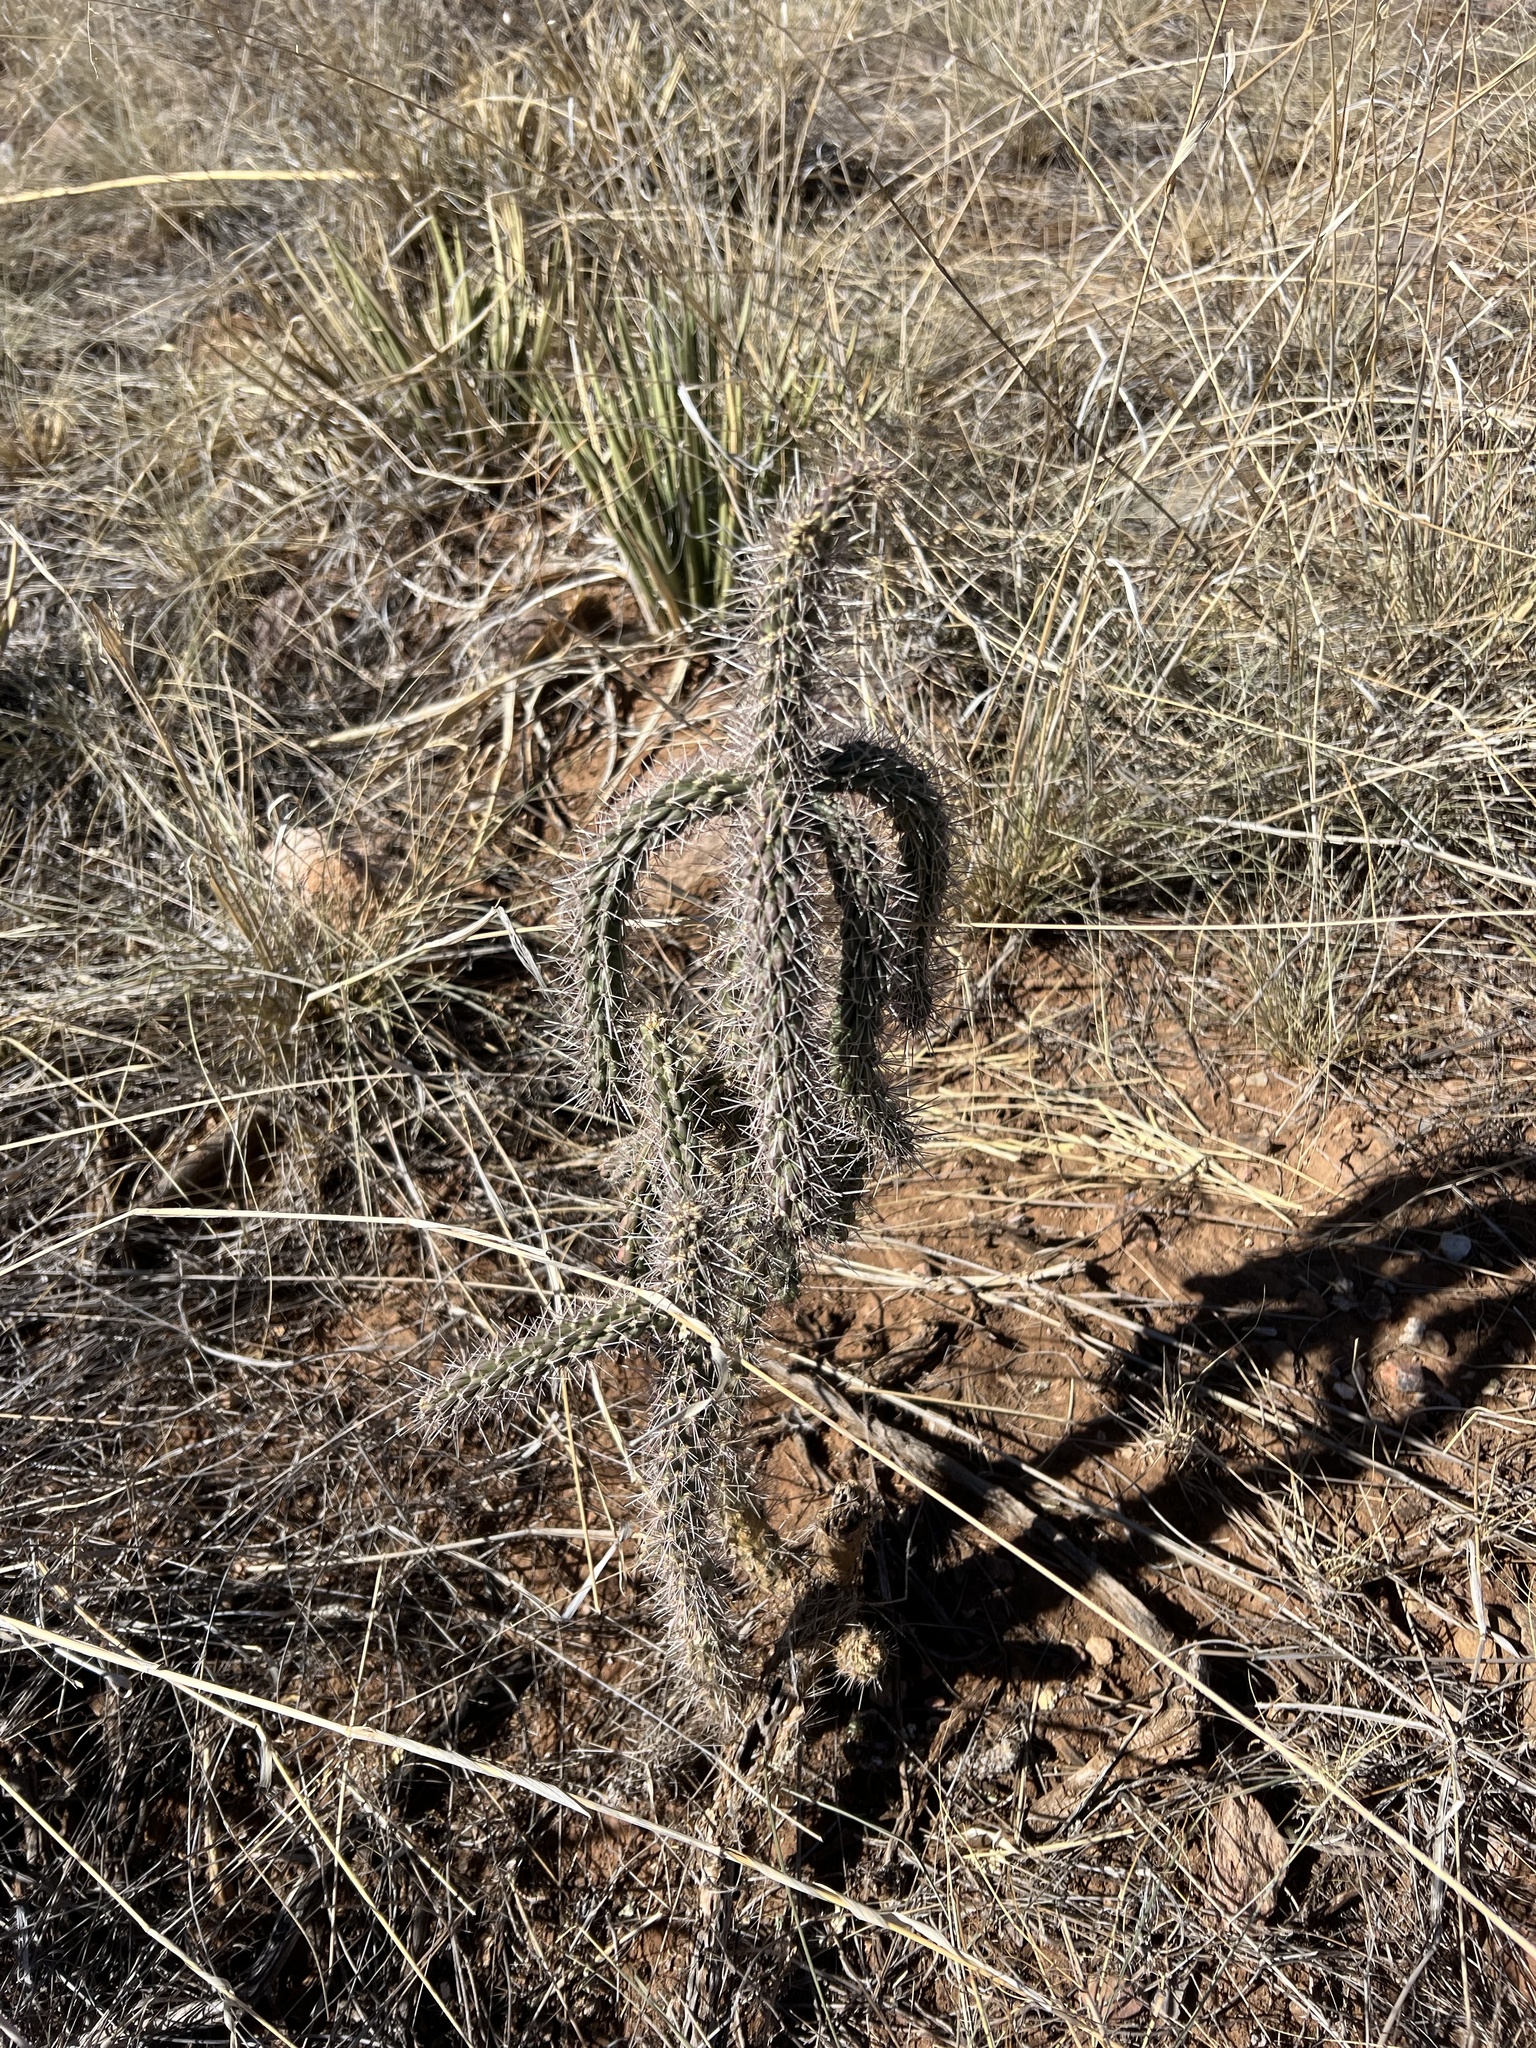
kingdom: Plantae
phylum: Tracheophyta
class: Magnoliopsida
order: Caryophyllales
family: Cactaceae
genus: Cylindropuntia
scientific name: Cylindropuntia imbricata
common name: Candelabrum cactus
